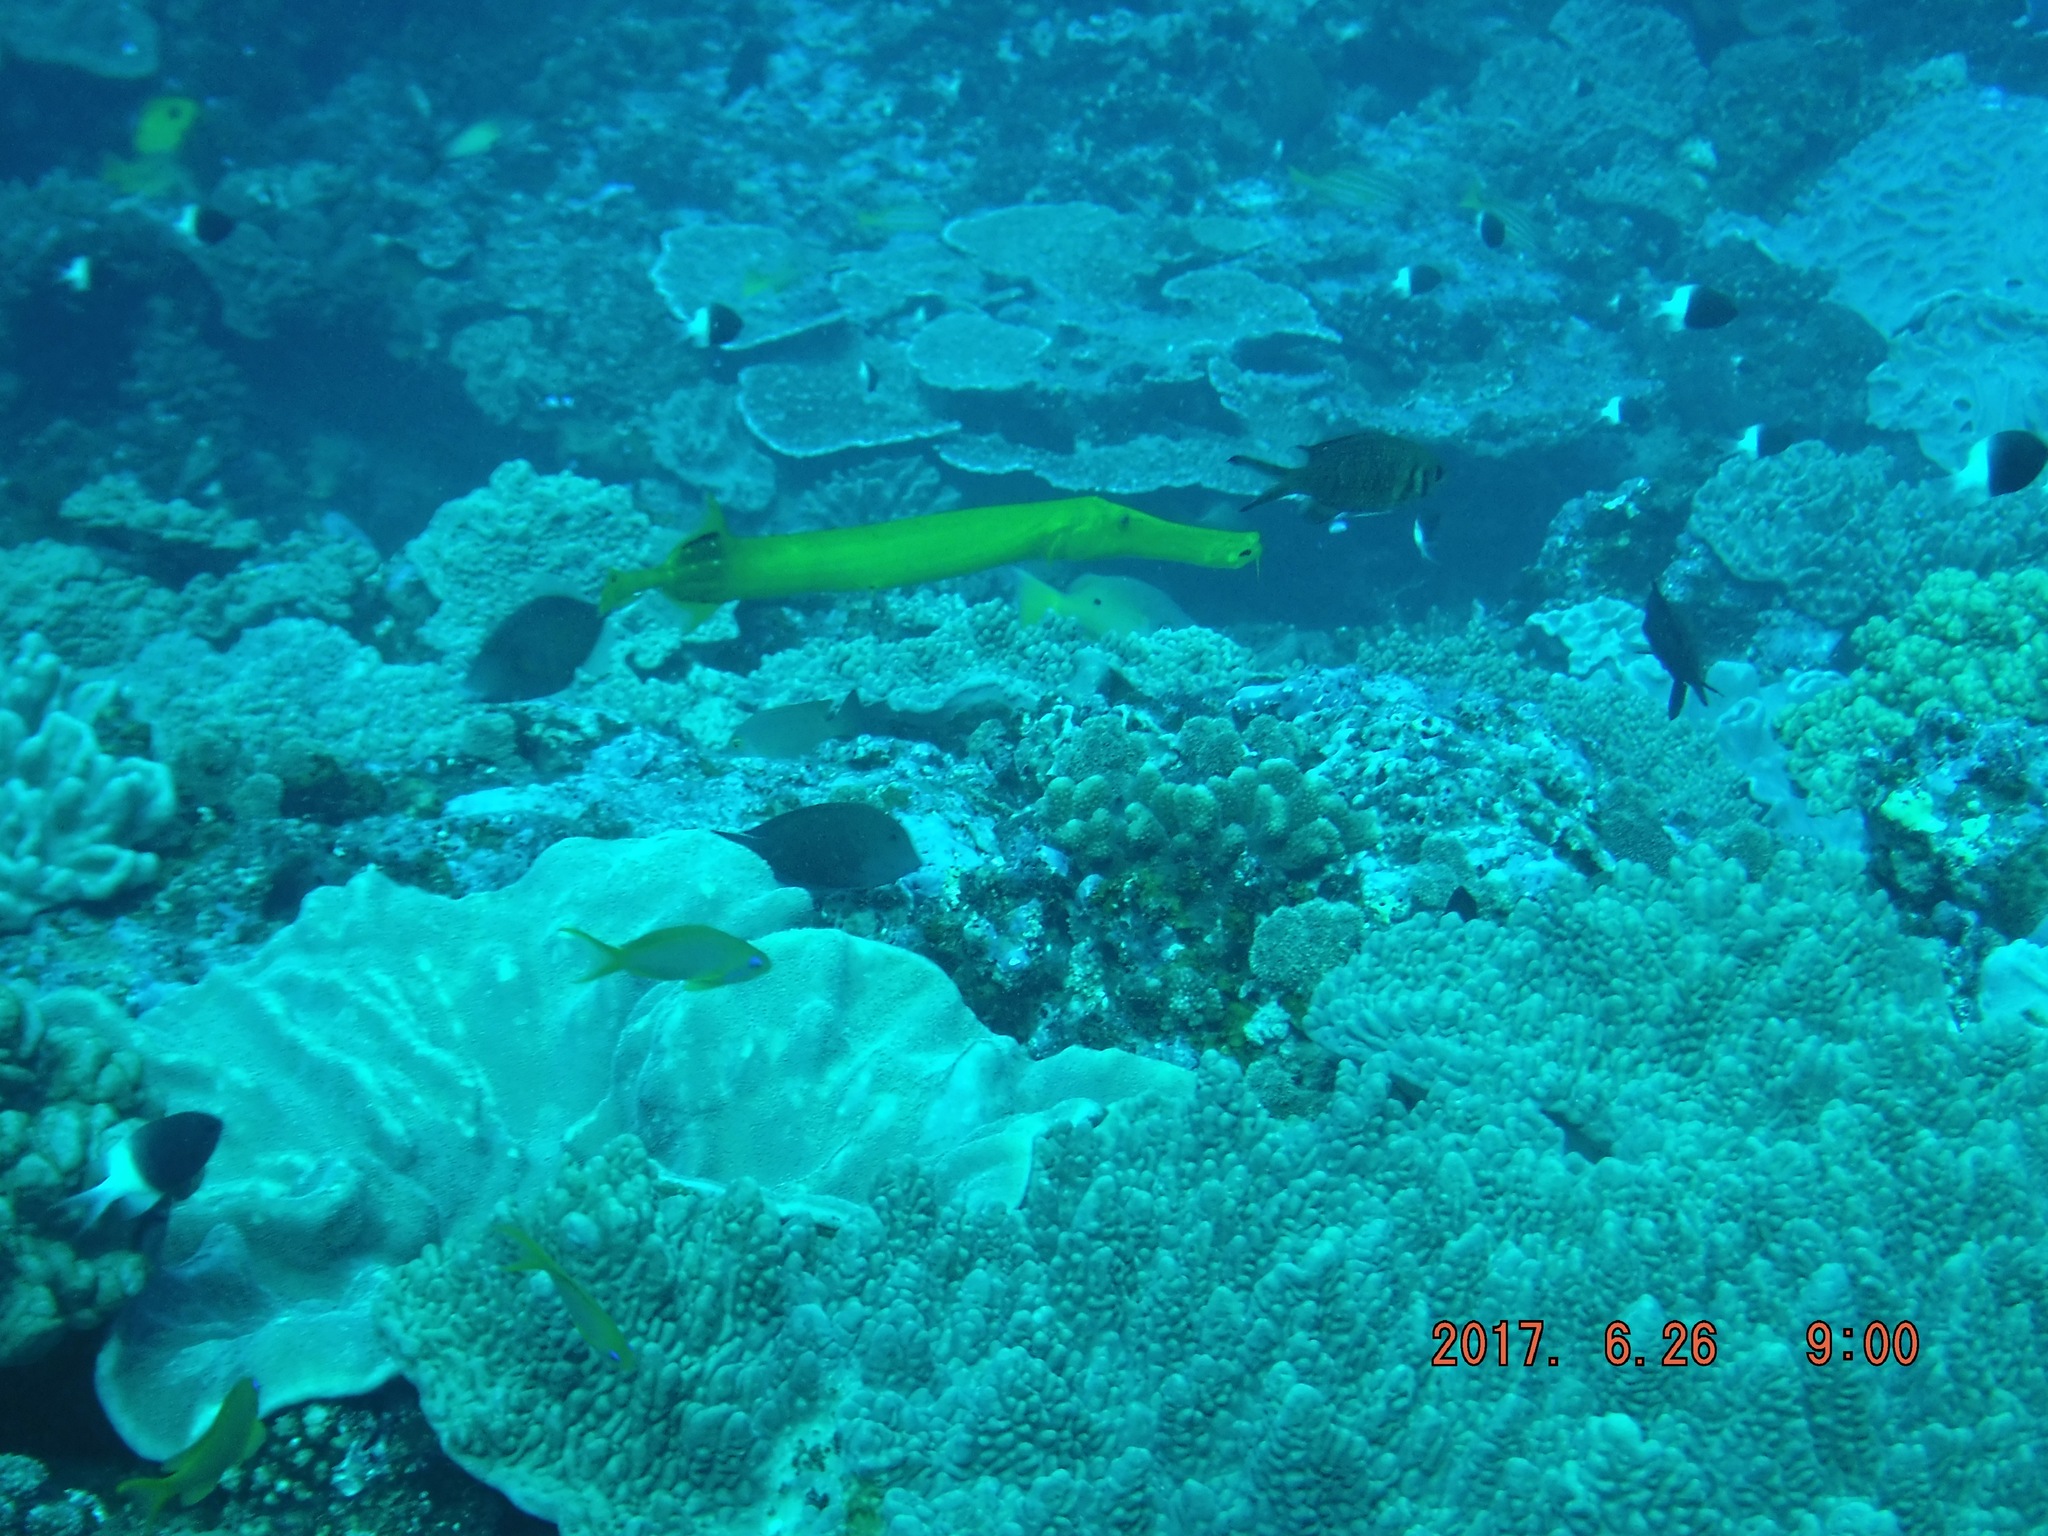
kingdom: Animalia
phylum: Chordata
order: Perciformes
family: Pomacentridae
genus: Chromis
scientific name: Chromis fieldi
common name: Chocolatedip chromis
